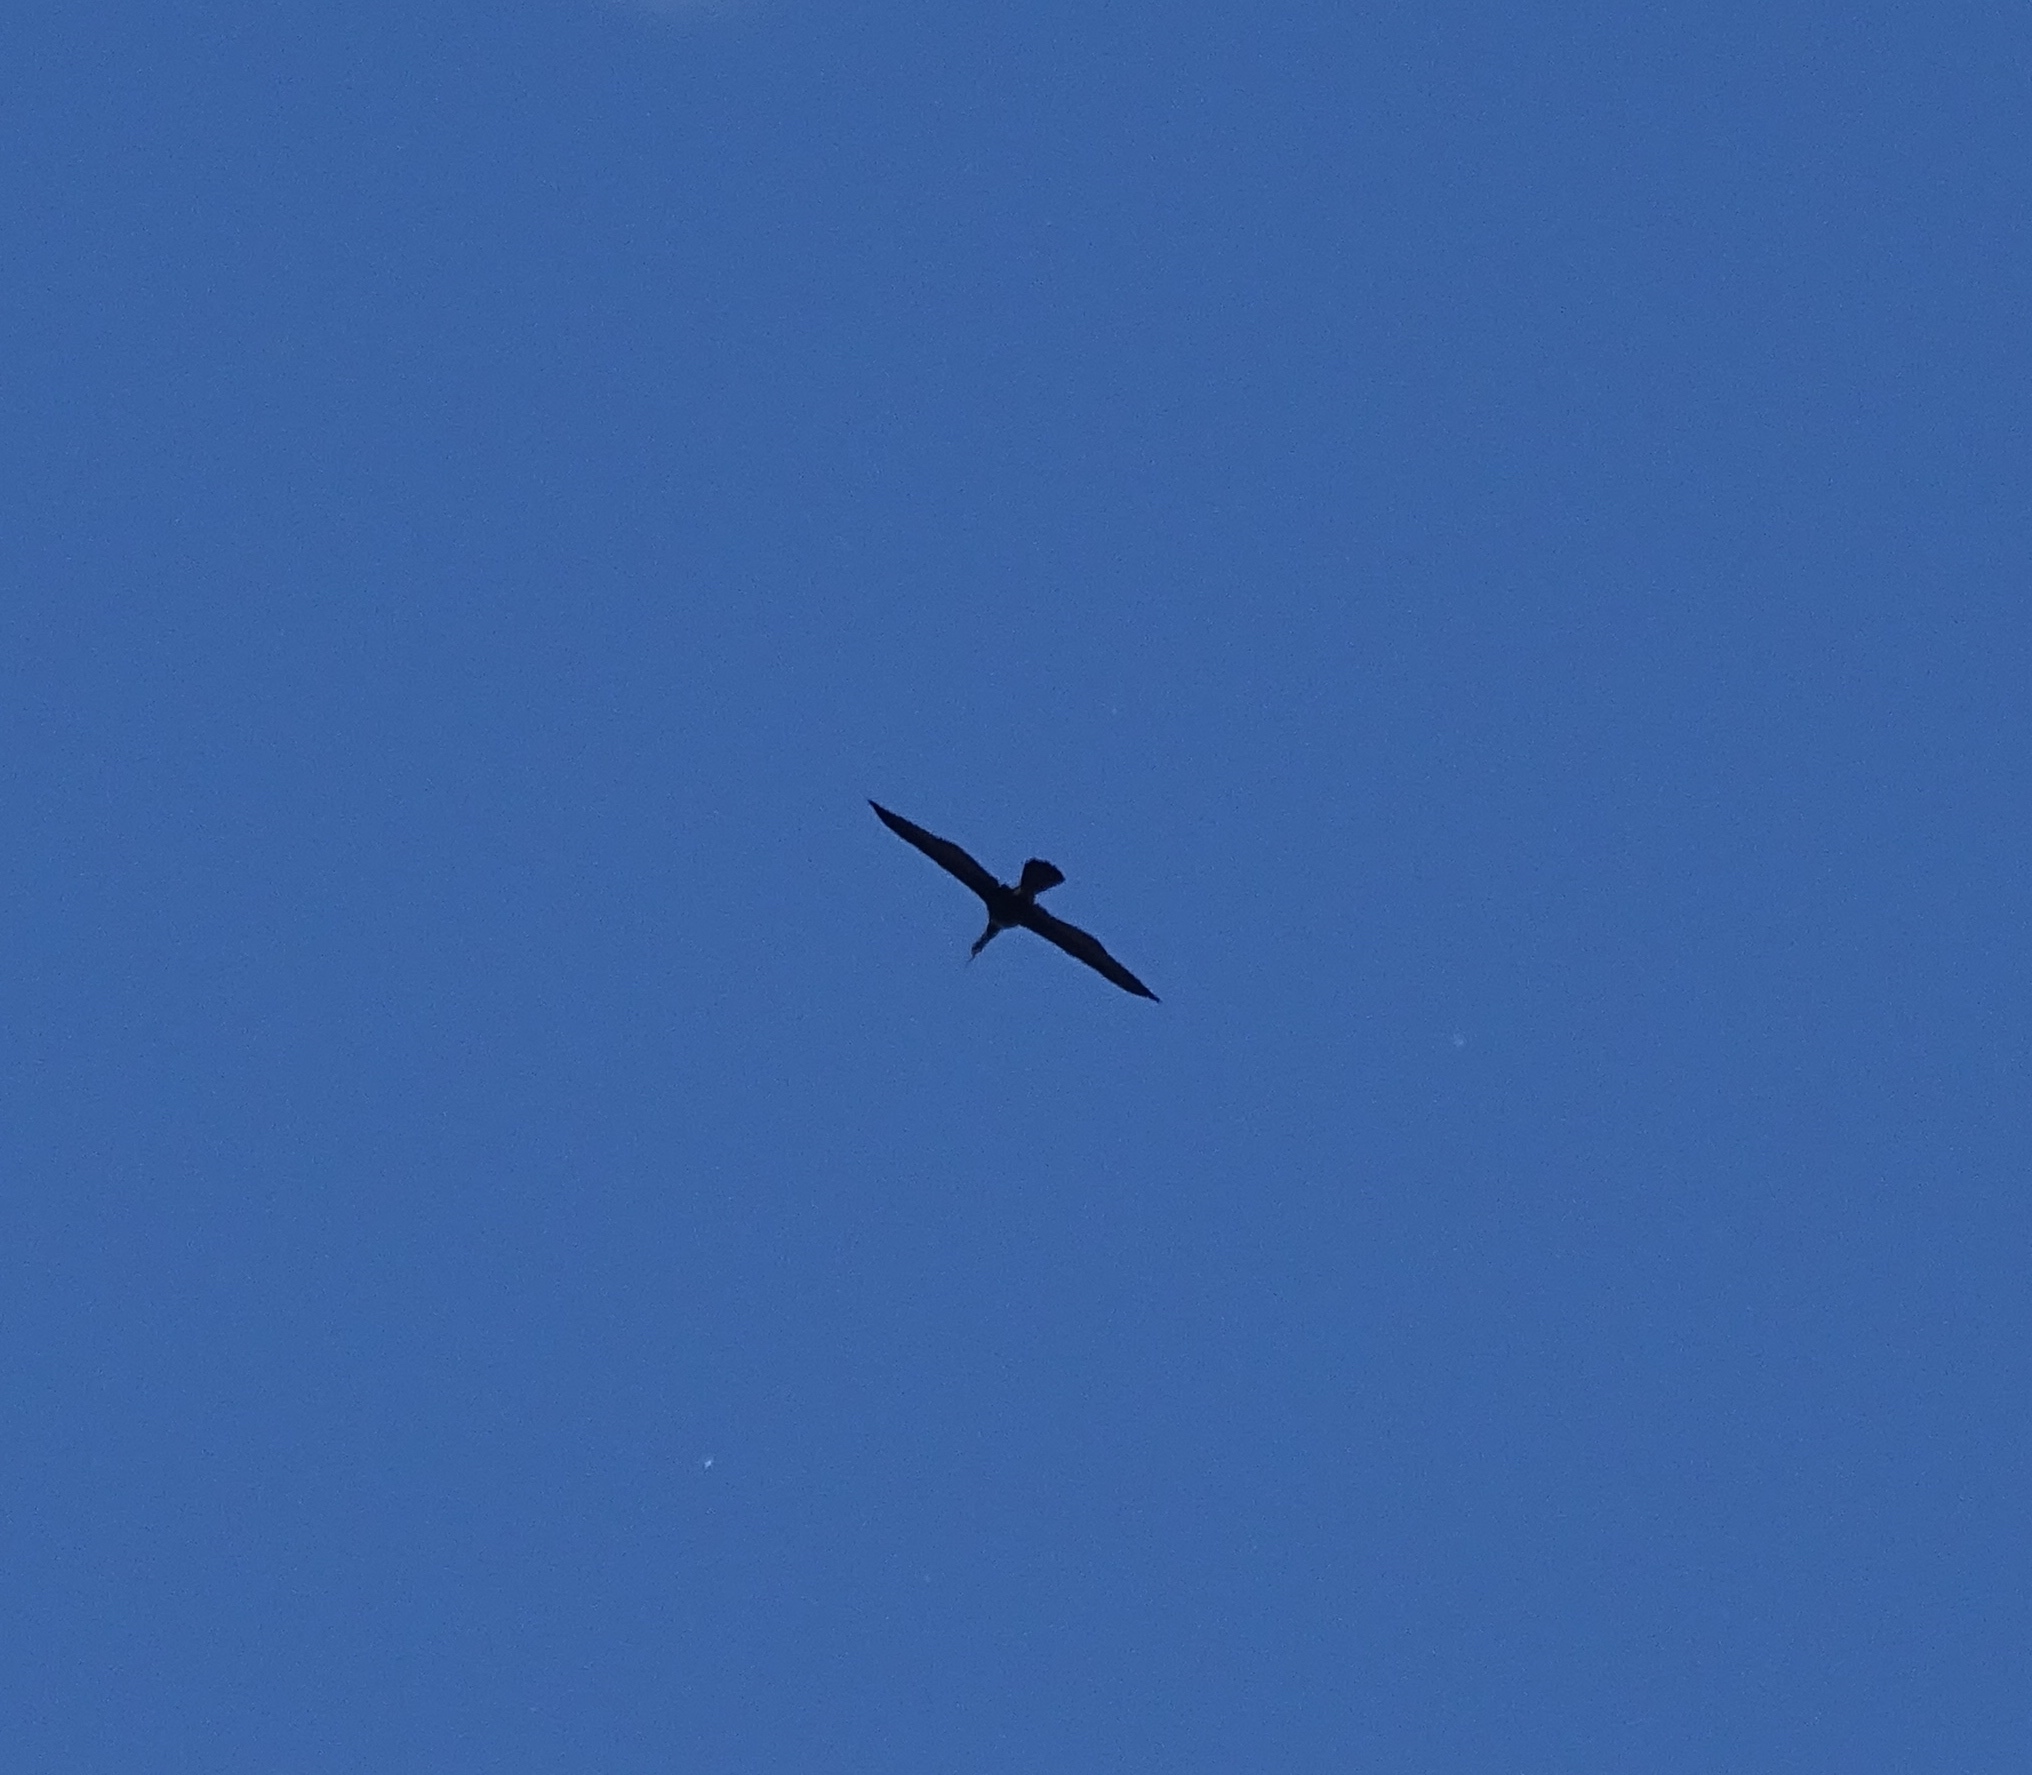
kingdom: Animalia
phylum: Chordata
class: Aves
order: Suliformes
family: Anhingidae
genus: Anhinga
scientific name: Anhinga anhinga
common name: Anhinga
